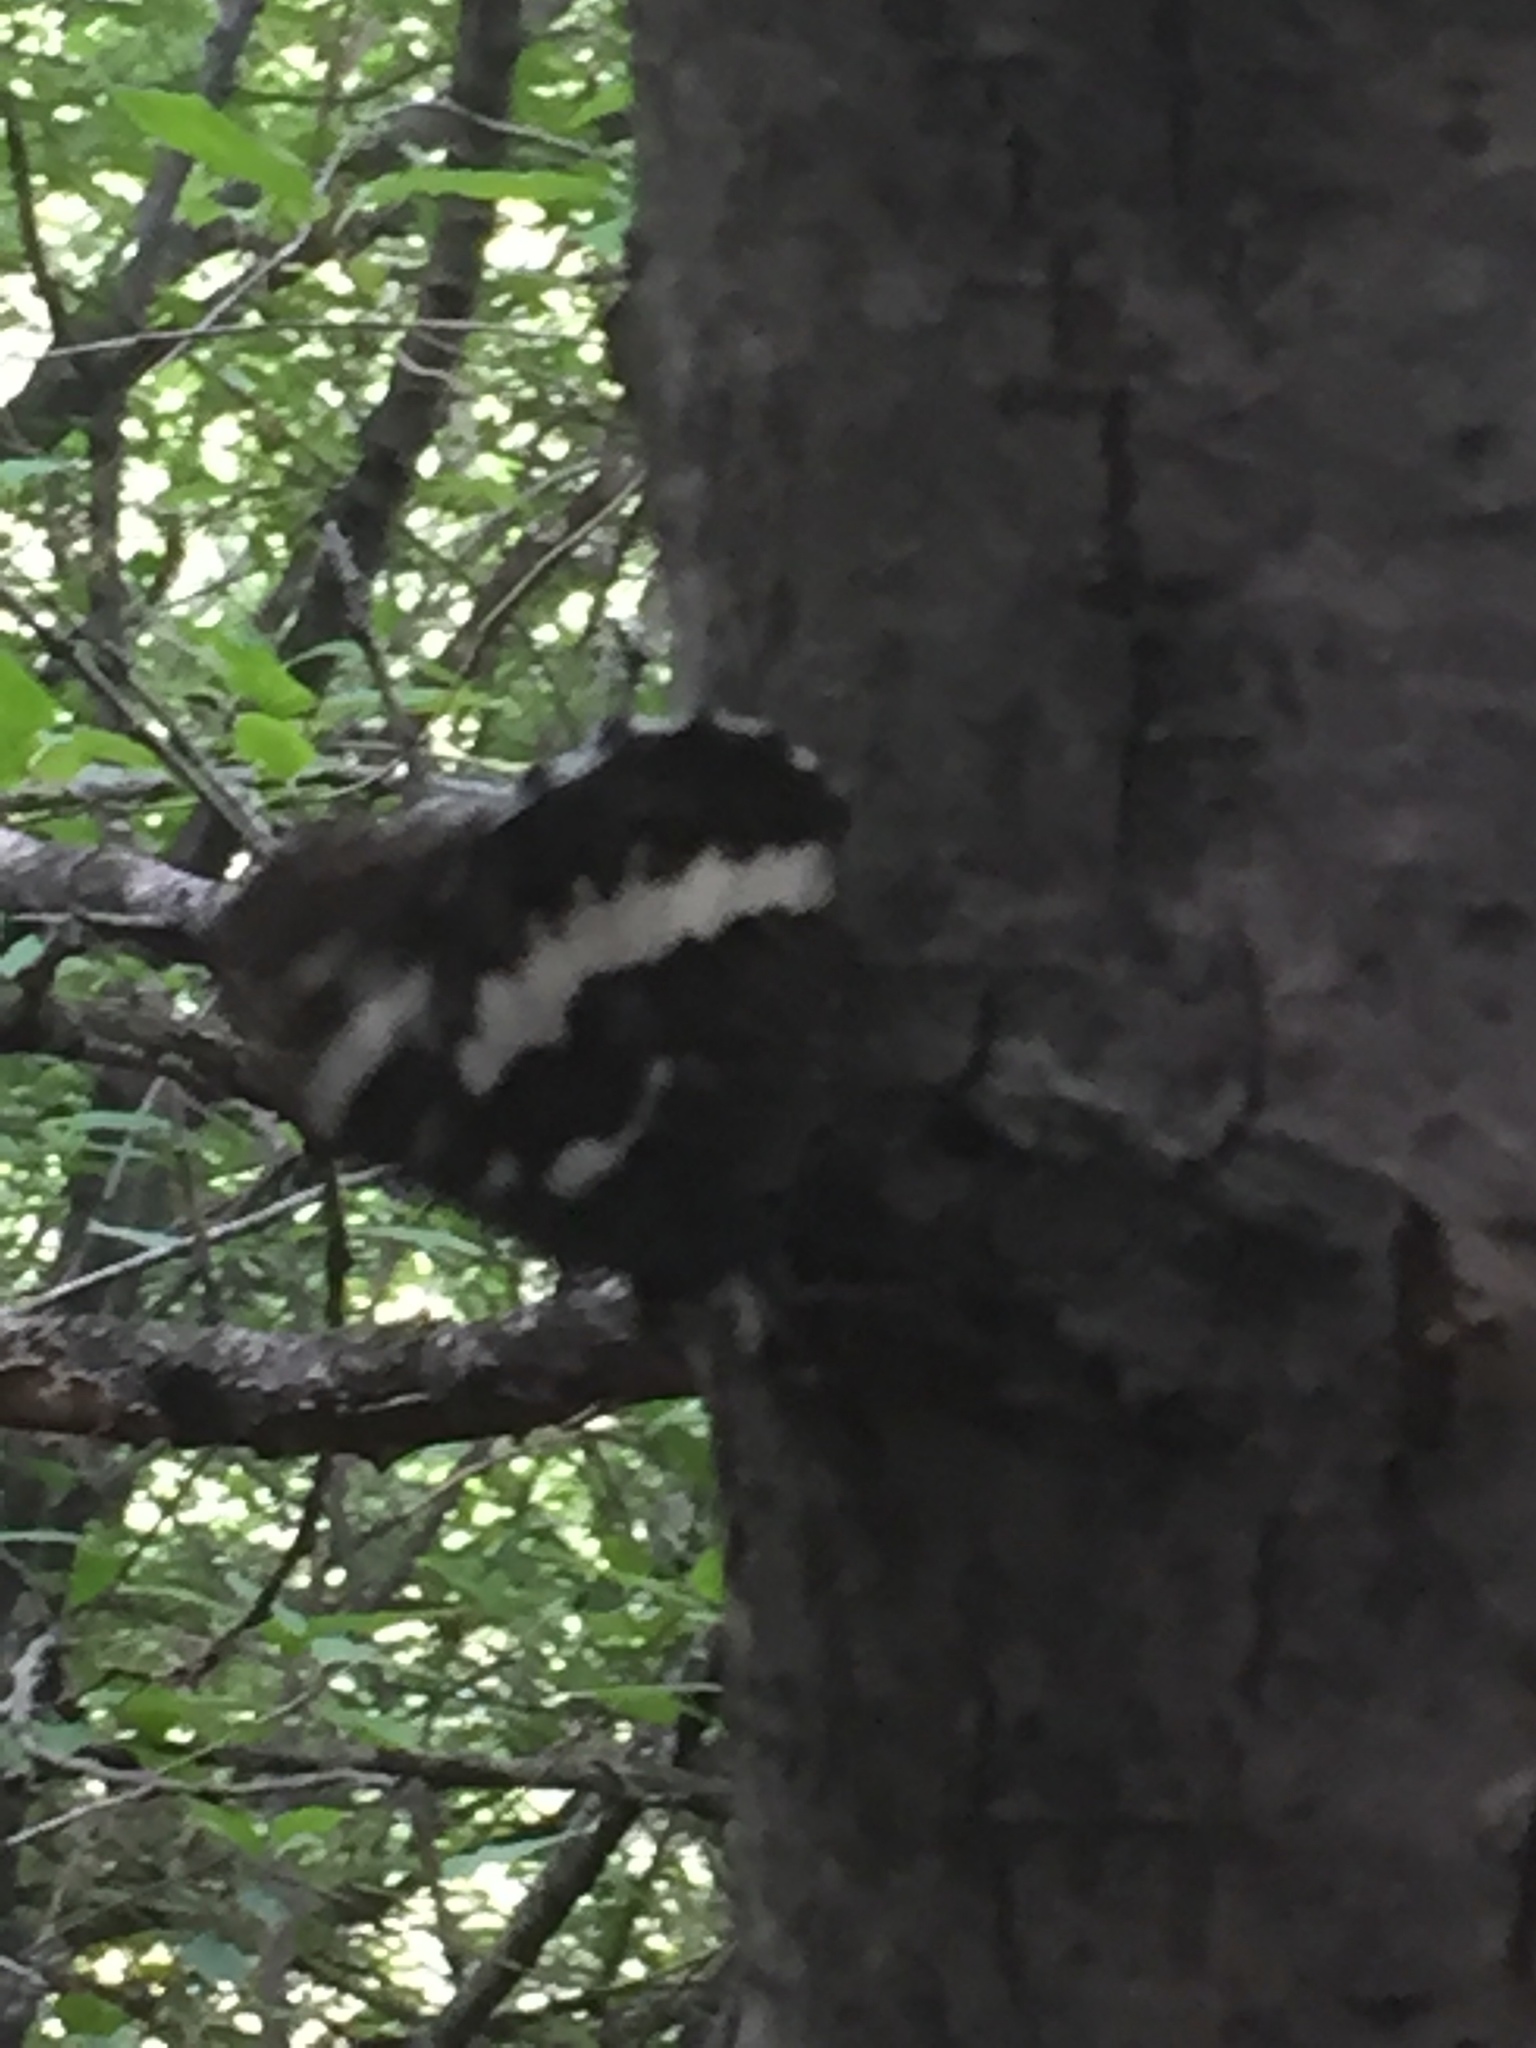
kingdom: Animalia
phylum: Arthropoda
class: Insecta
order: Lepidoptera
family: Lycaenidae
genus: Loweia
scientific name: Loweia tityrus
